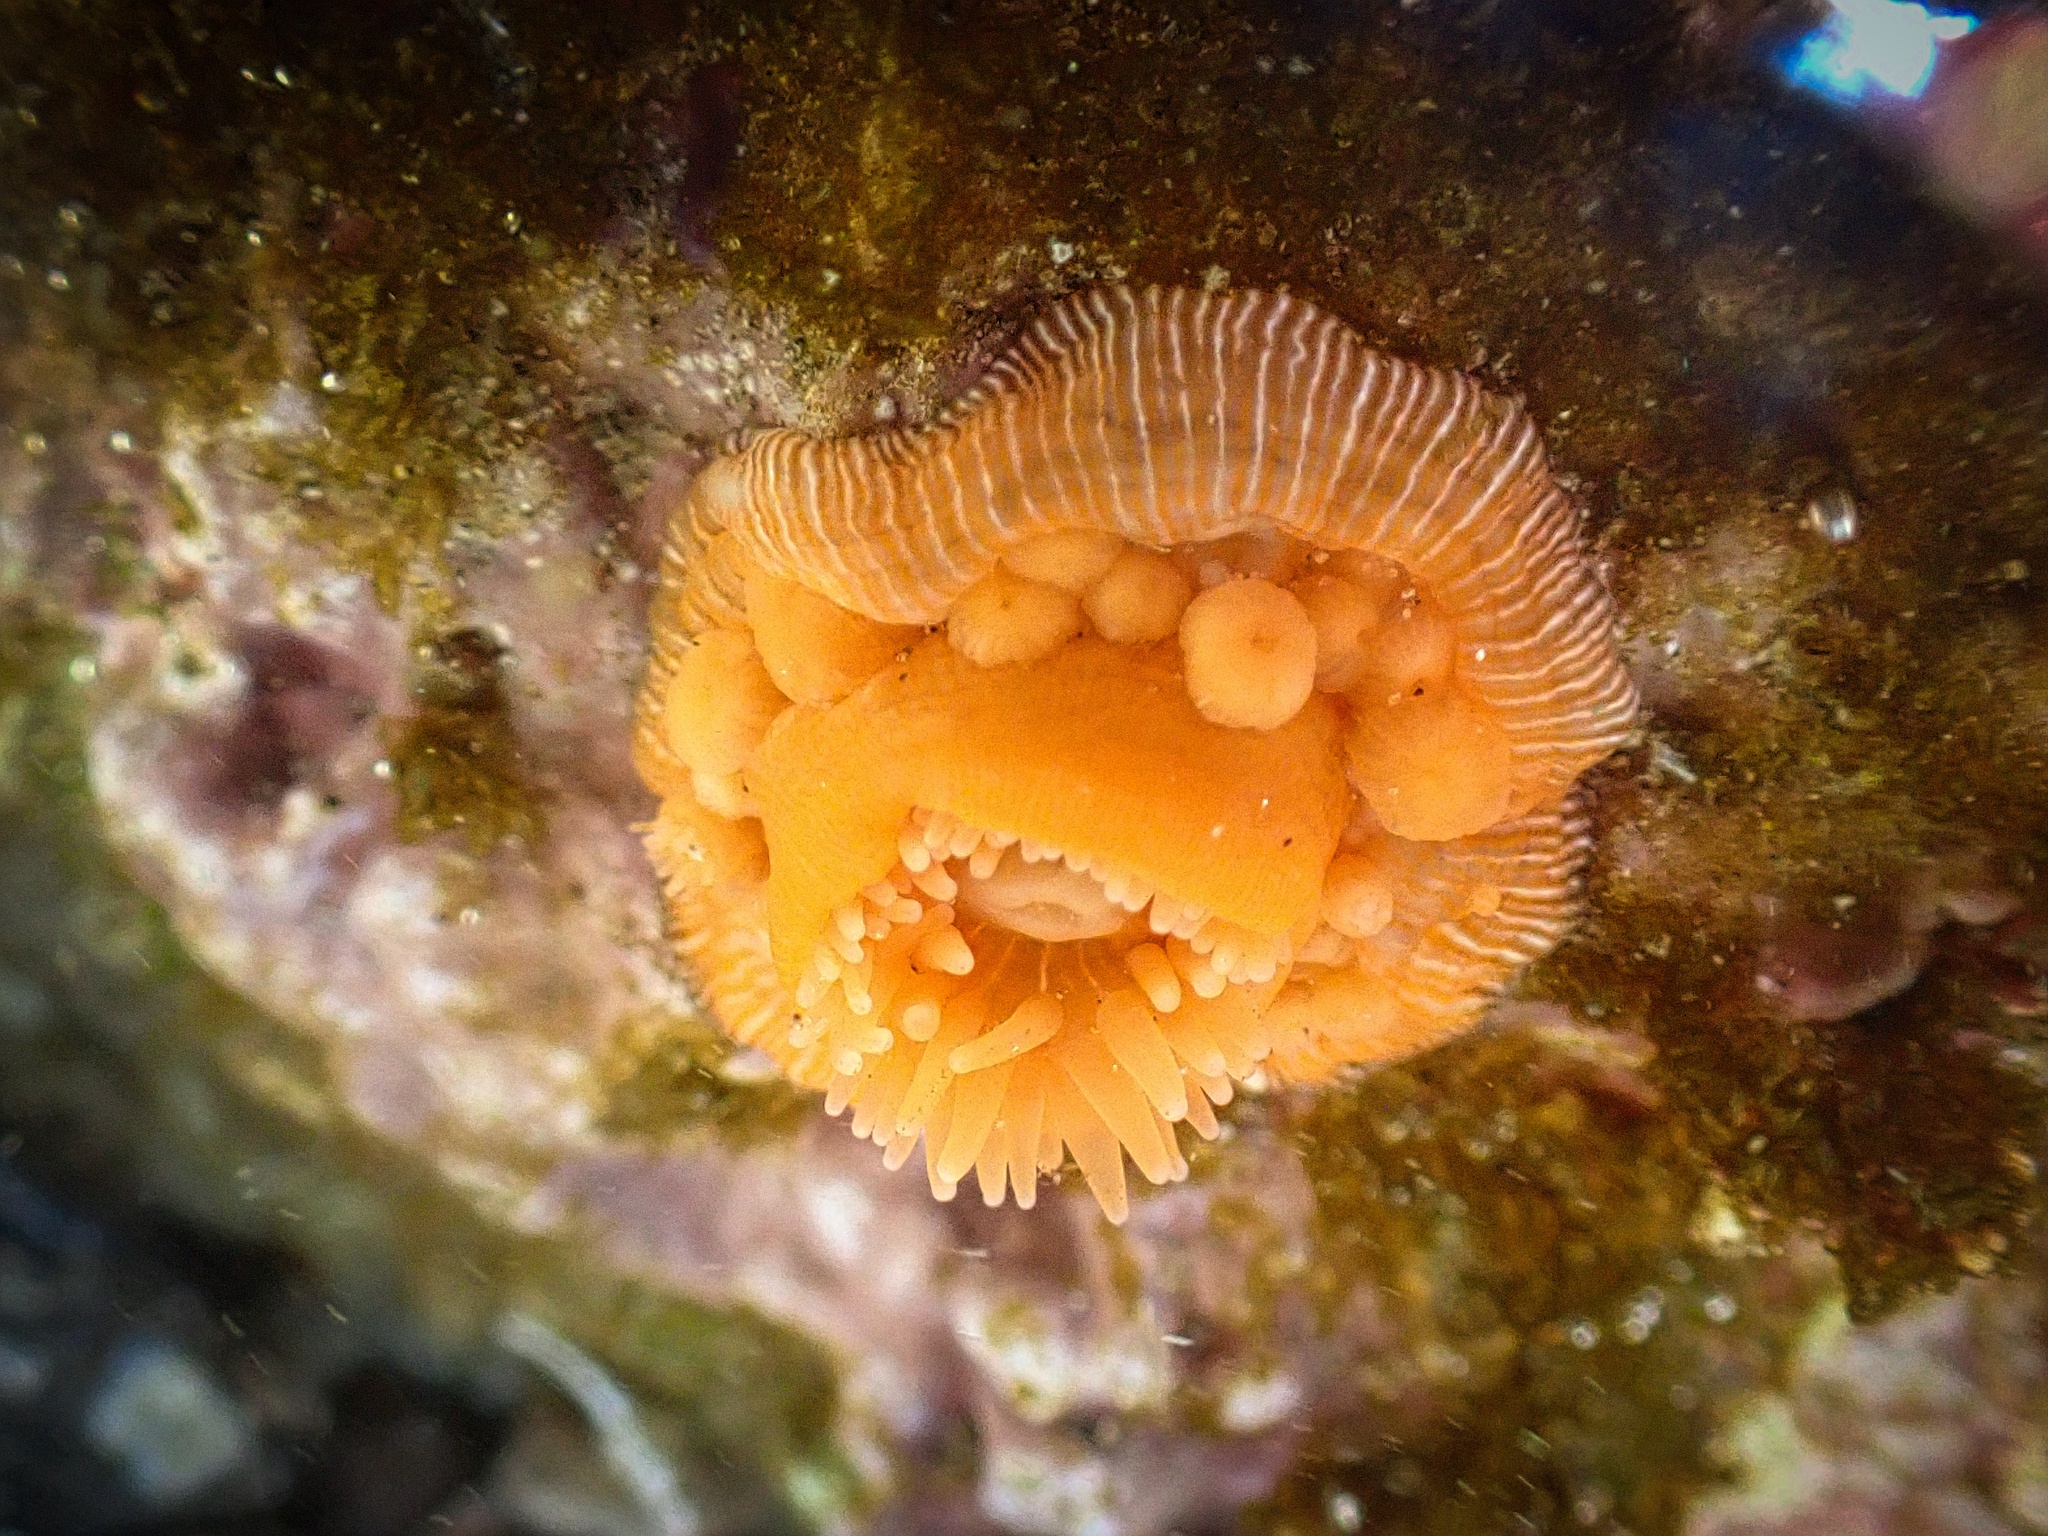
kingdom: Animalia
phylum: Cnidaria
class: Anthozoa
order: Actiniaria
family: Actiniidae
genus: Epiactis
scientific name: Epiactis prolifera
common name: Brooding anemone
